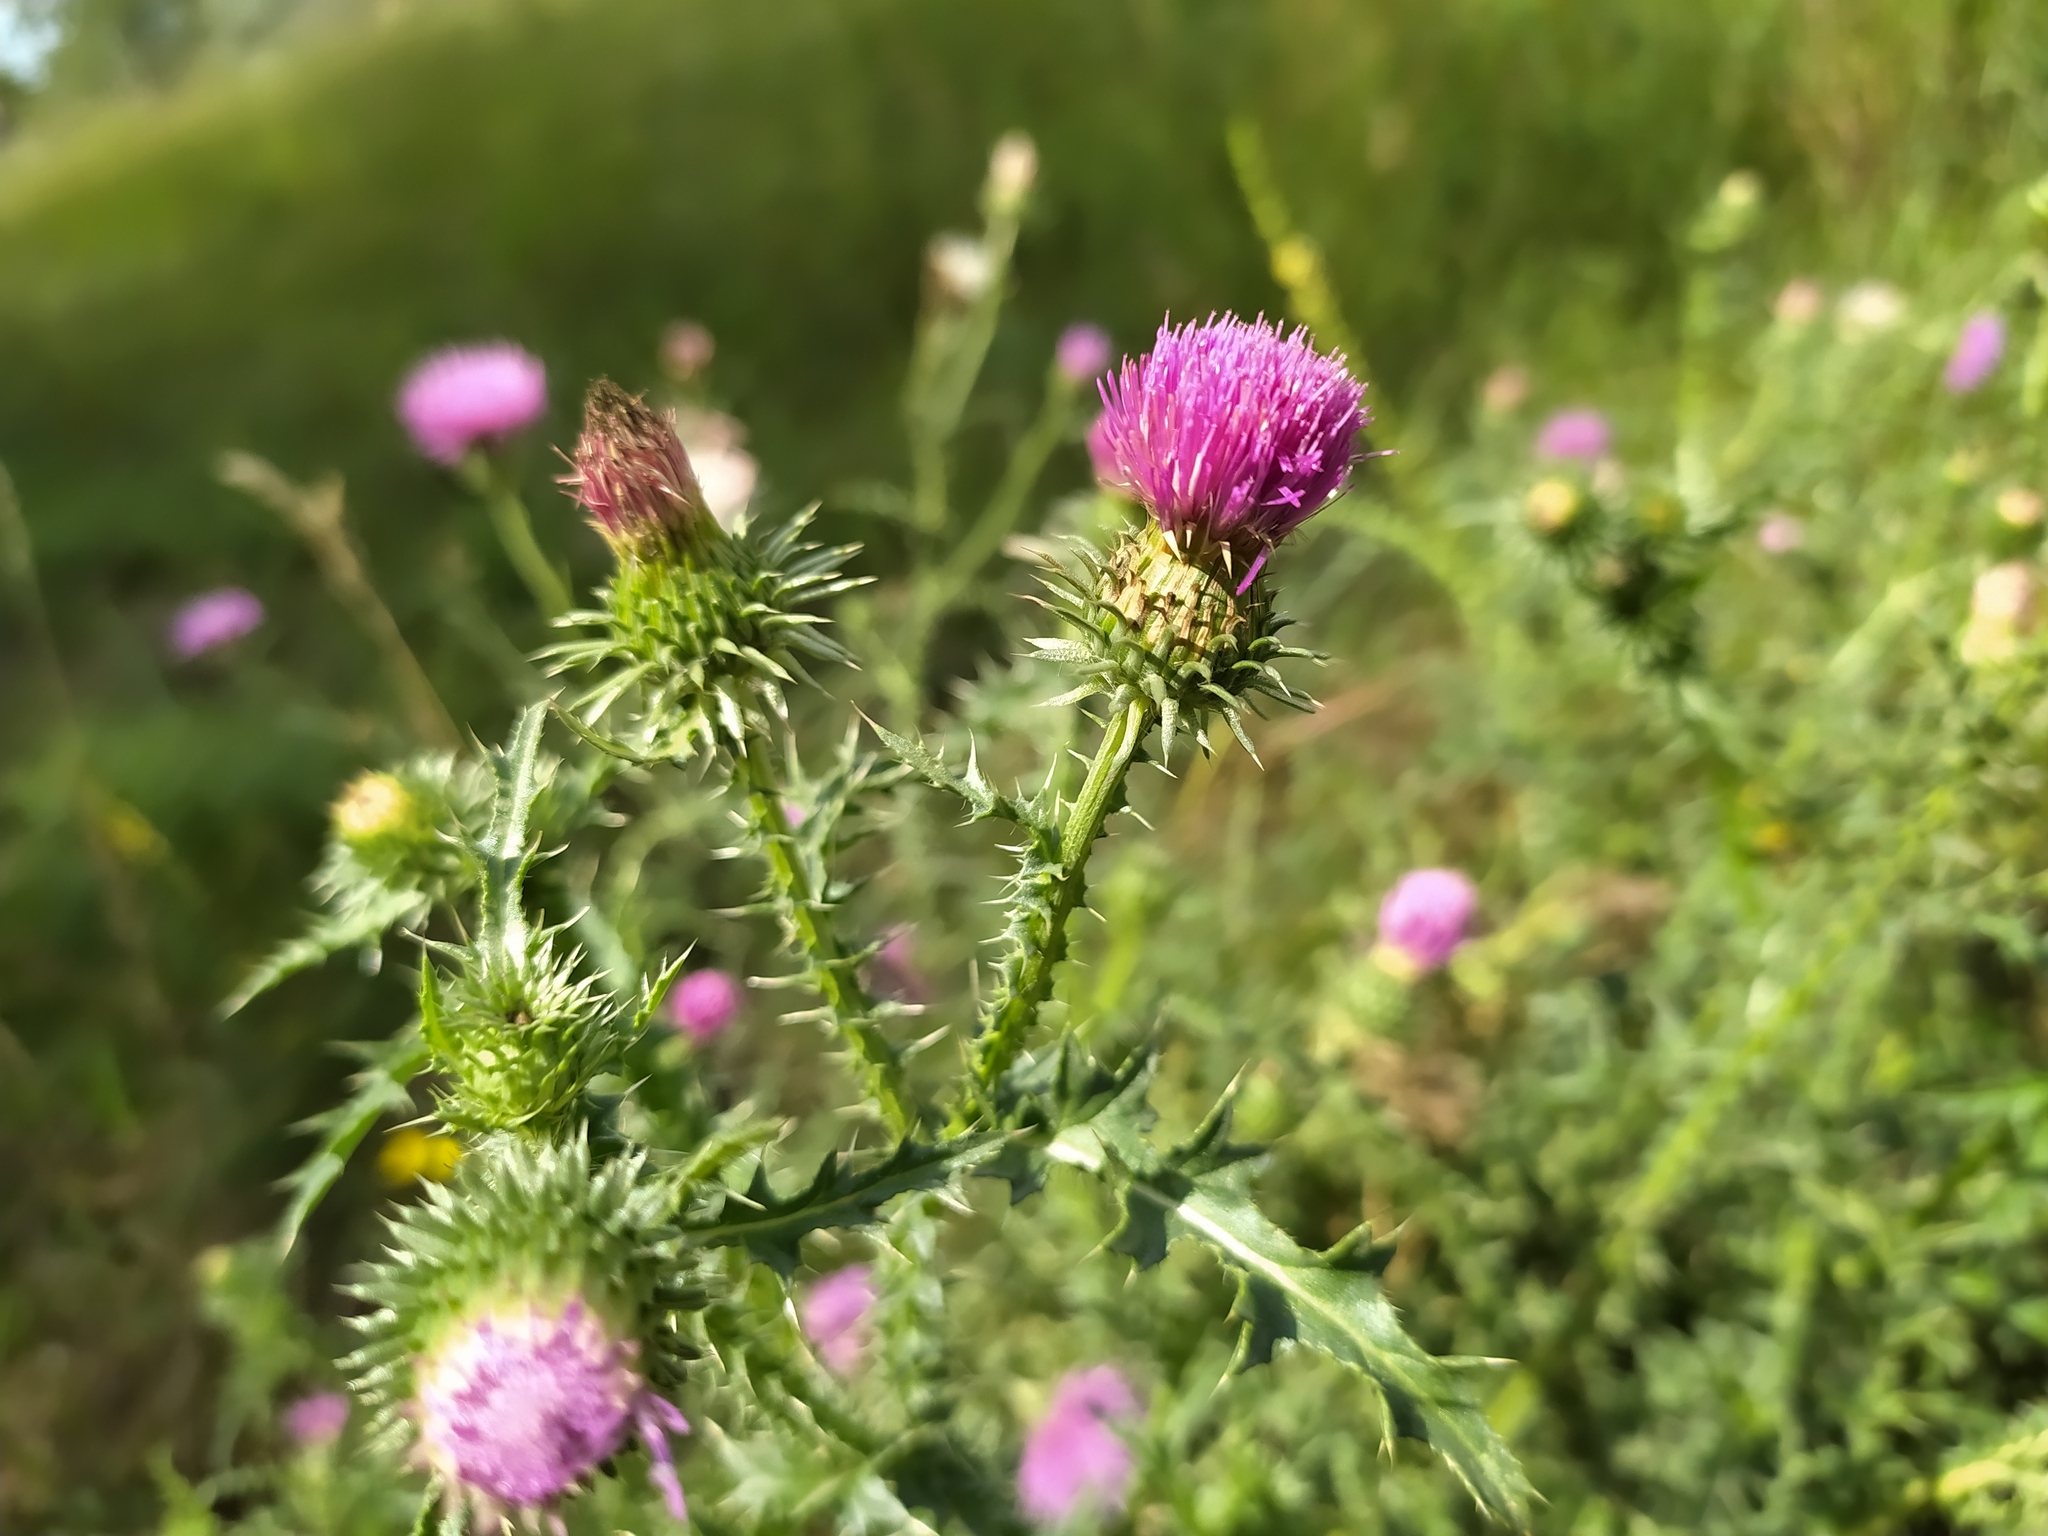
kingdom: Plantae
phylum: Tracheophyta
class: Magnoliopsida
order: Asterales
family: Asteraceae
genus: Carduus
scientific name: Carduus acanthoides
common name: Plumeless thistle
